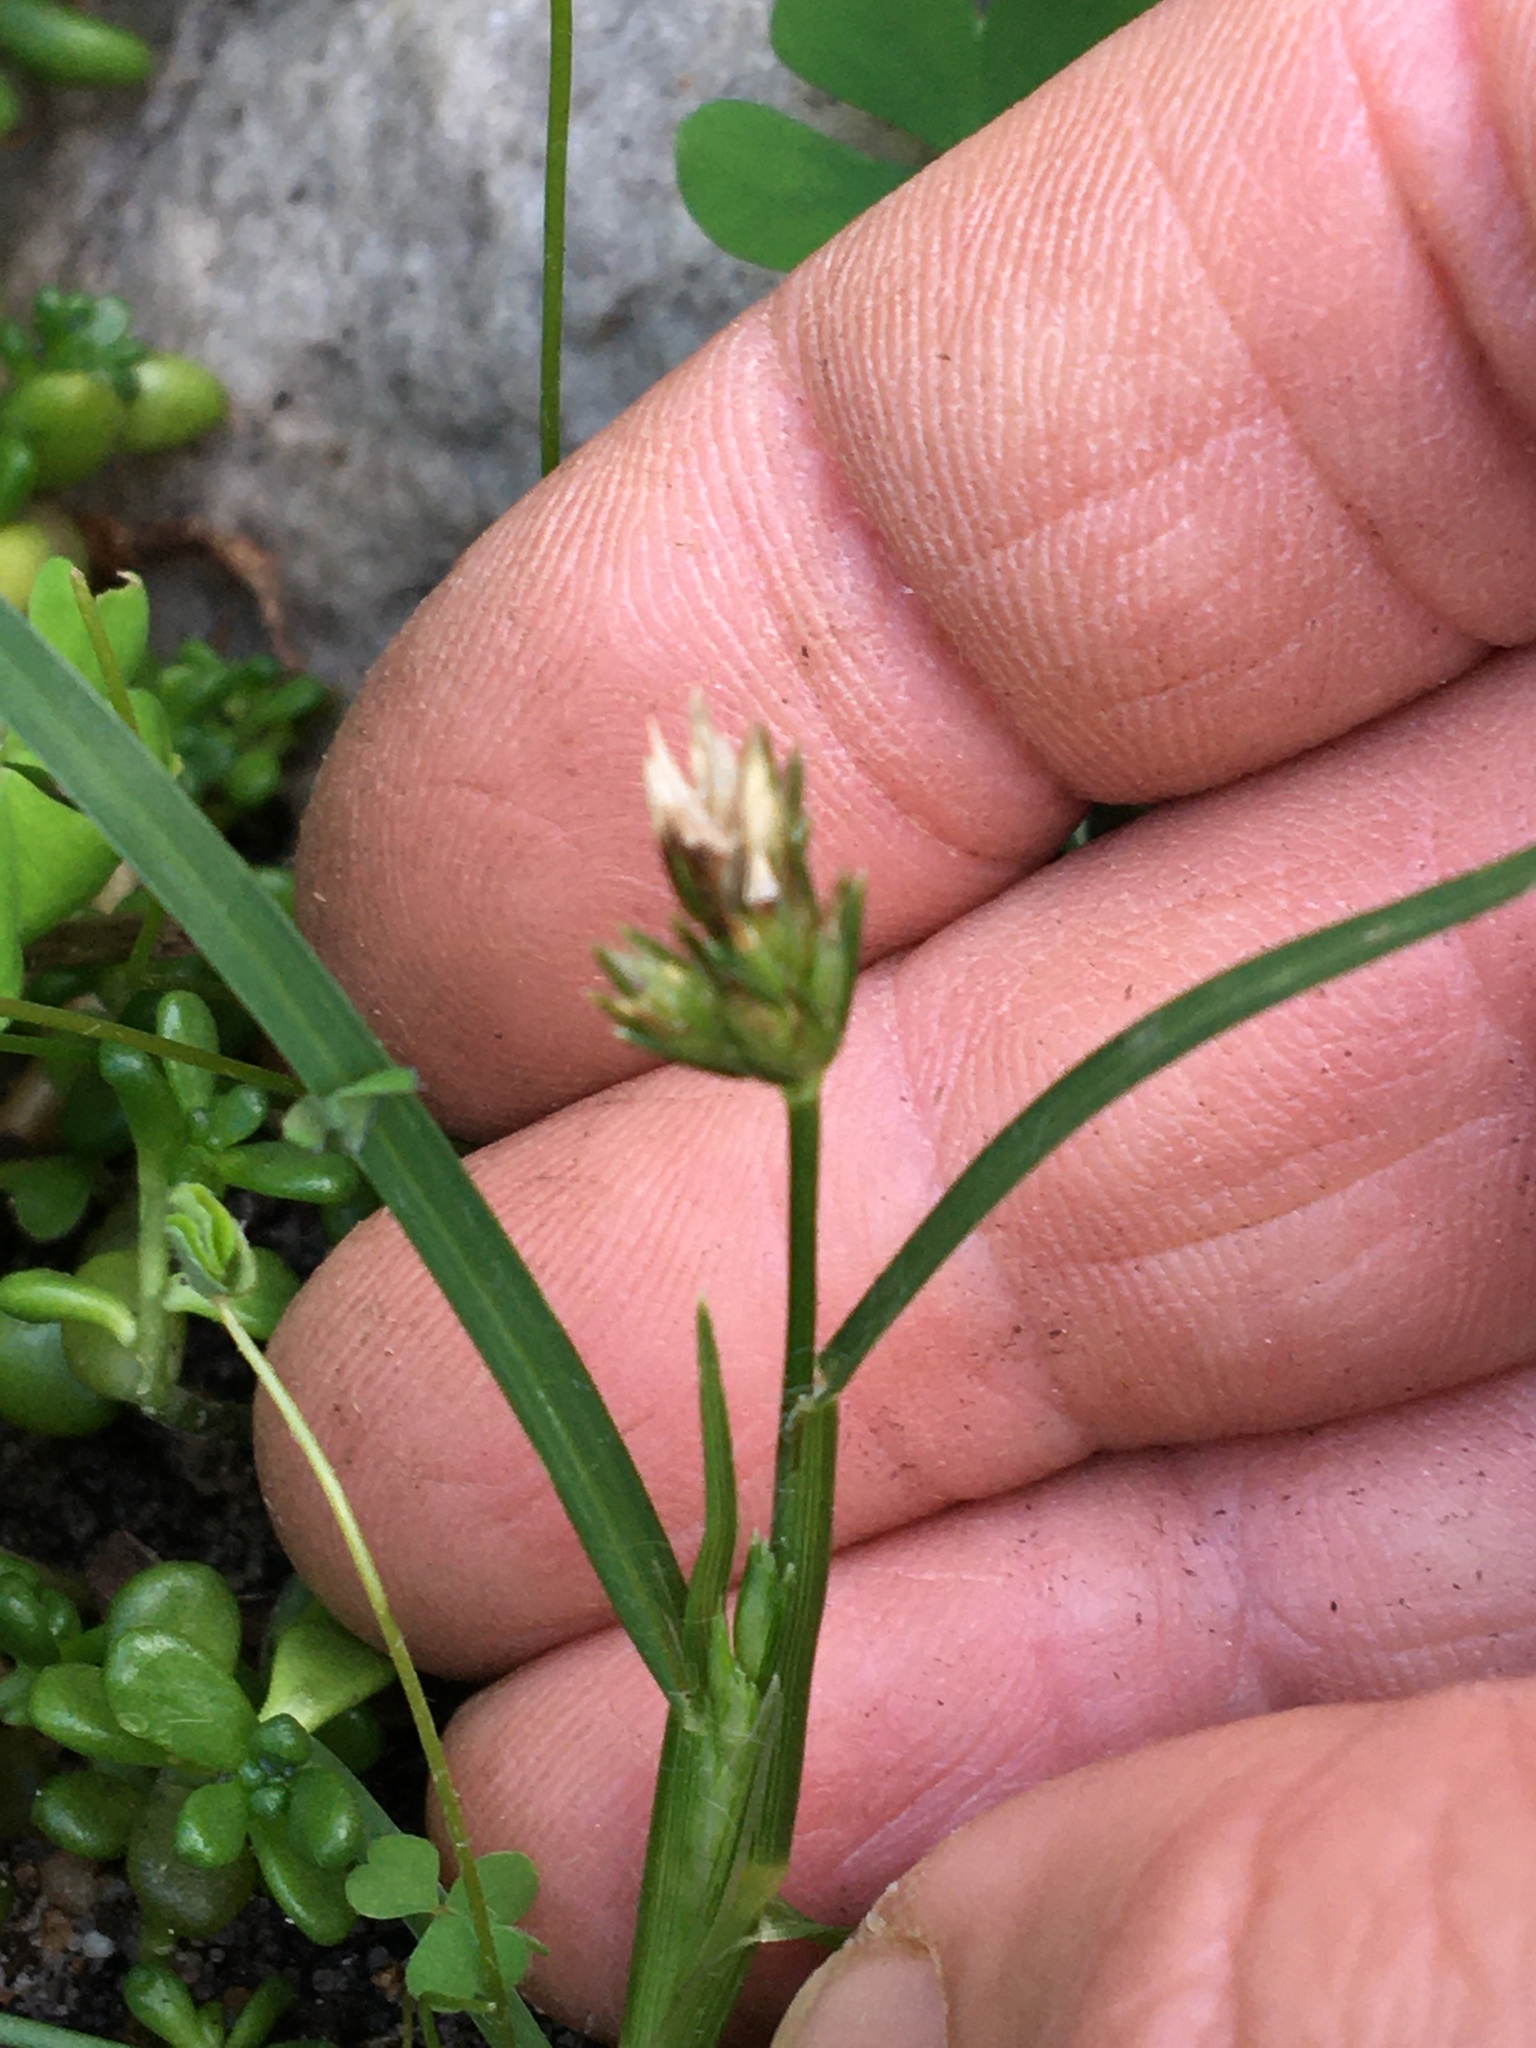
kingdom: Plantae
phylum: Tracheophyta
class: Liliopsida
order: Poales
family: Poaceae
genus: Poa
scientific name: Poa annua
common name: Annual bluegrass
